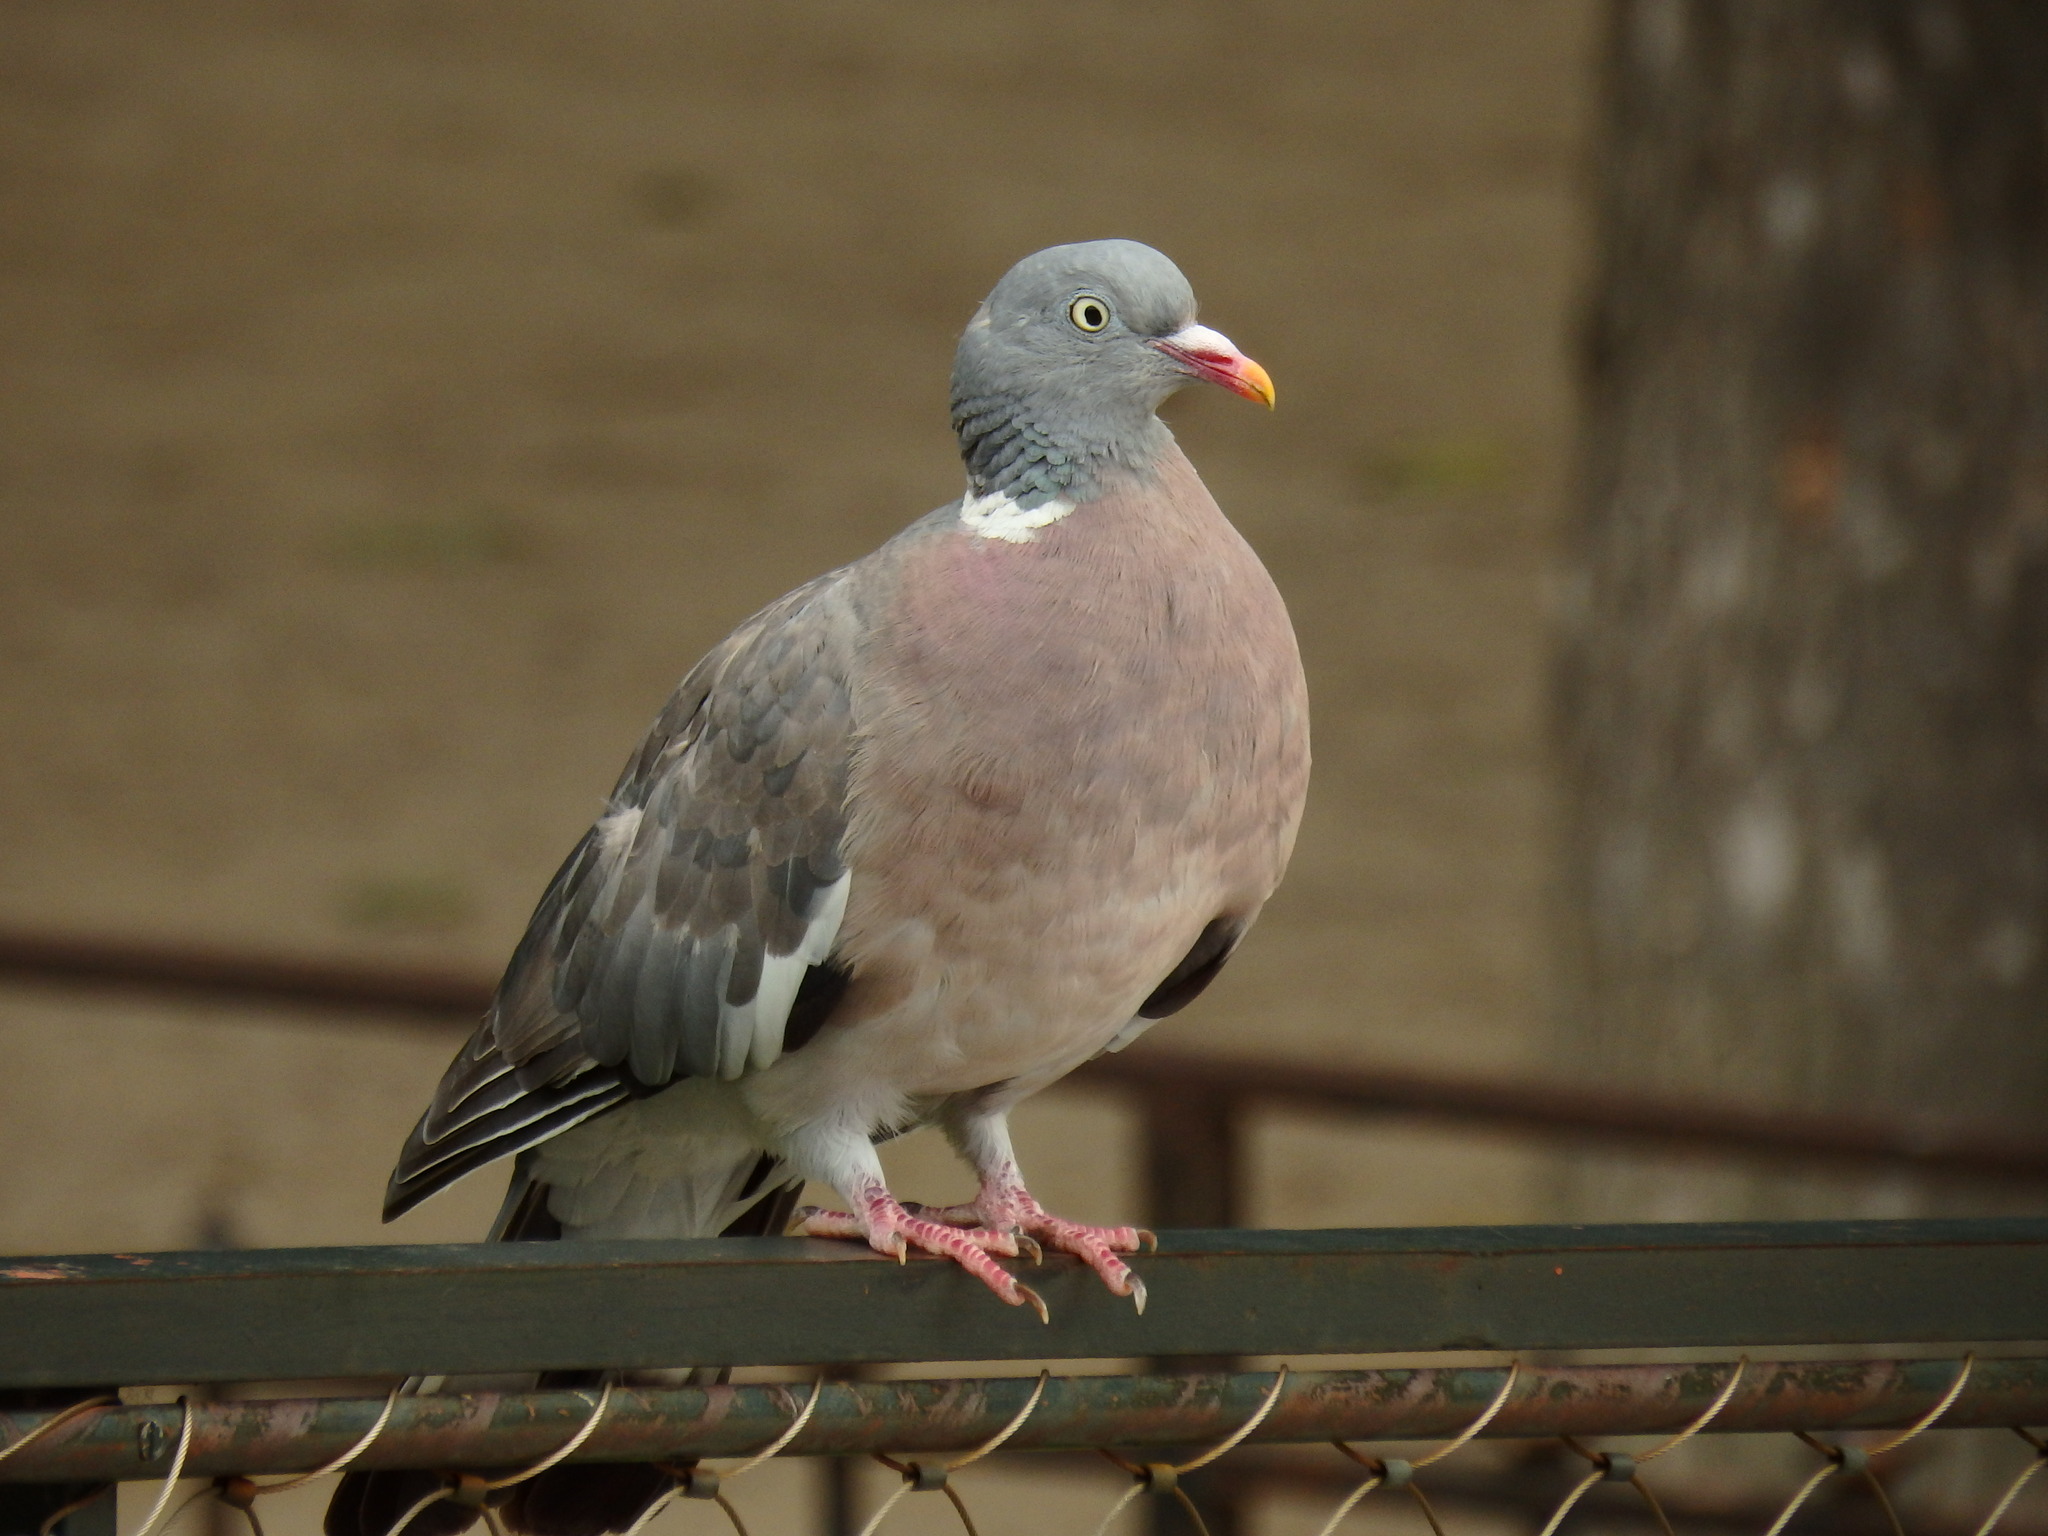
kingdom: Animalia
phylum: Chordata
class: Aves
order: Columbiformes
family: Columbidae
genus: Columba
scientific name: Columba palumbus
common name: Common wood pigeon
